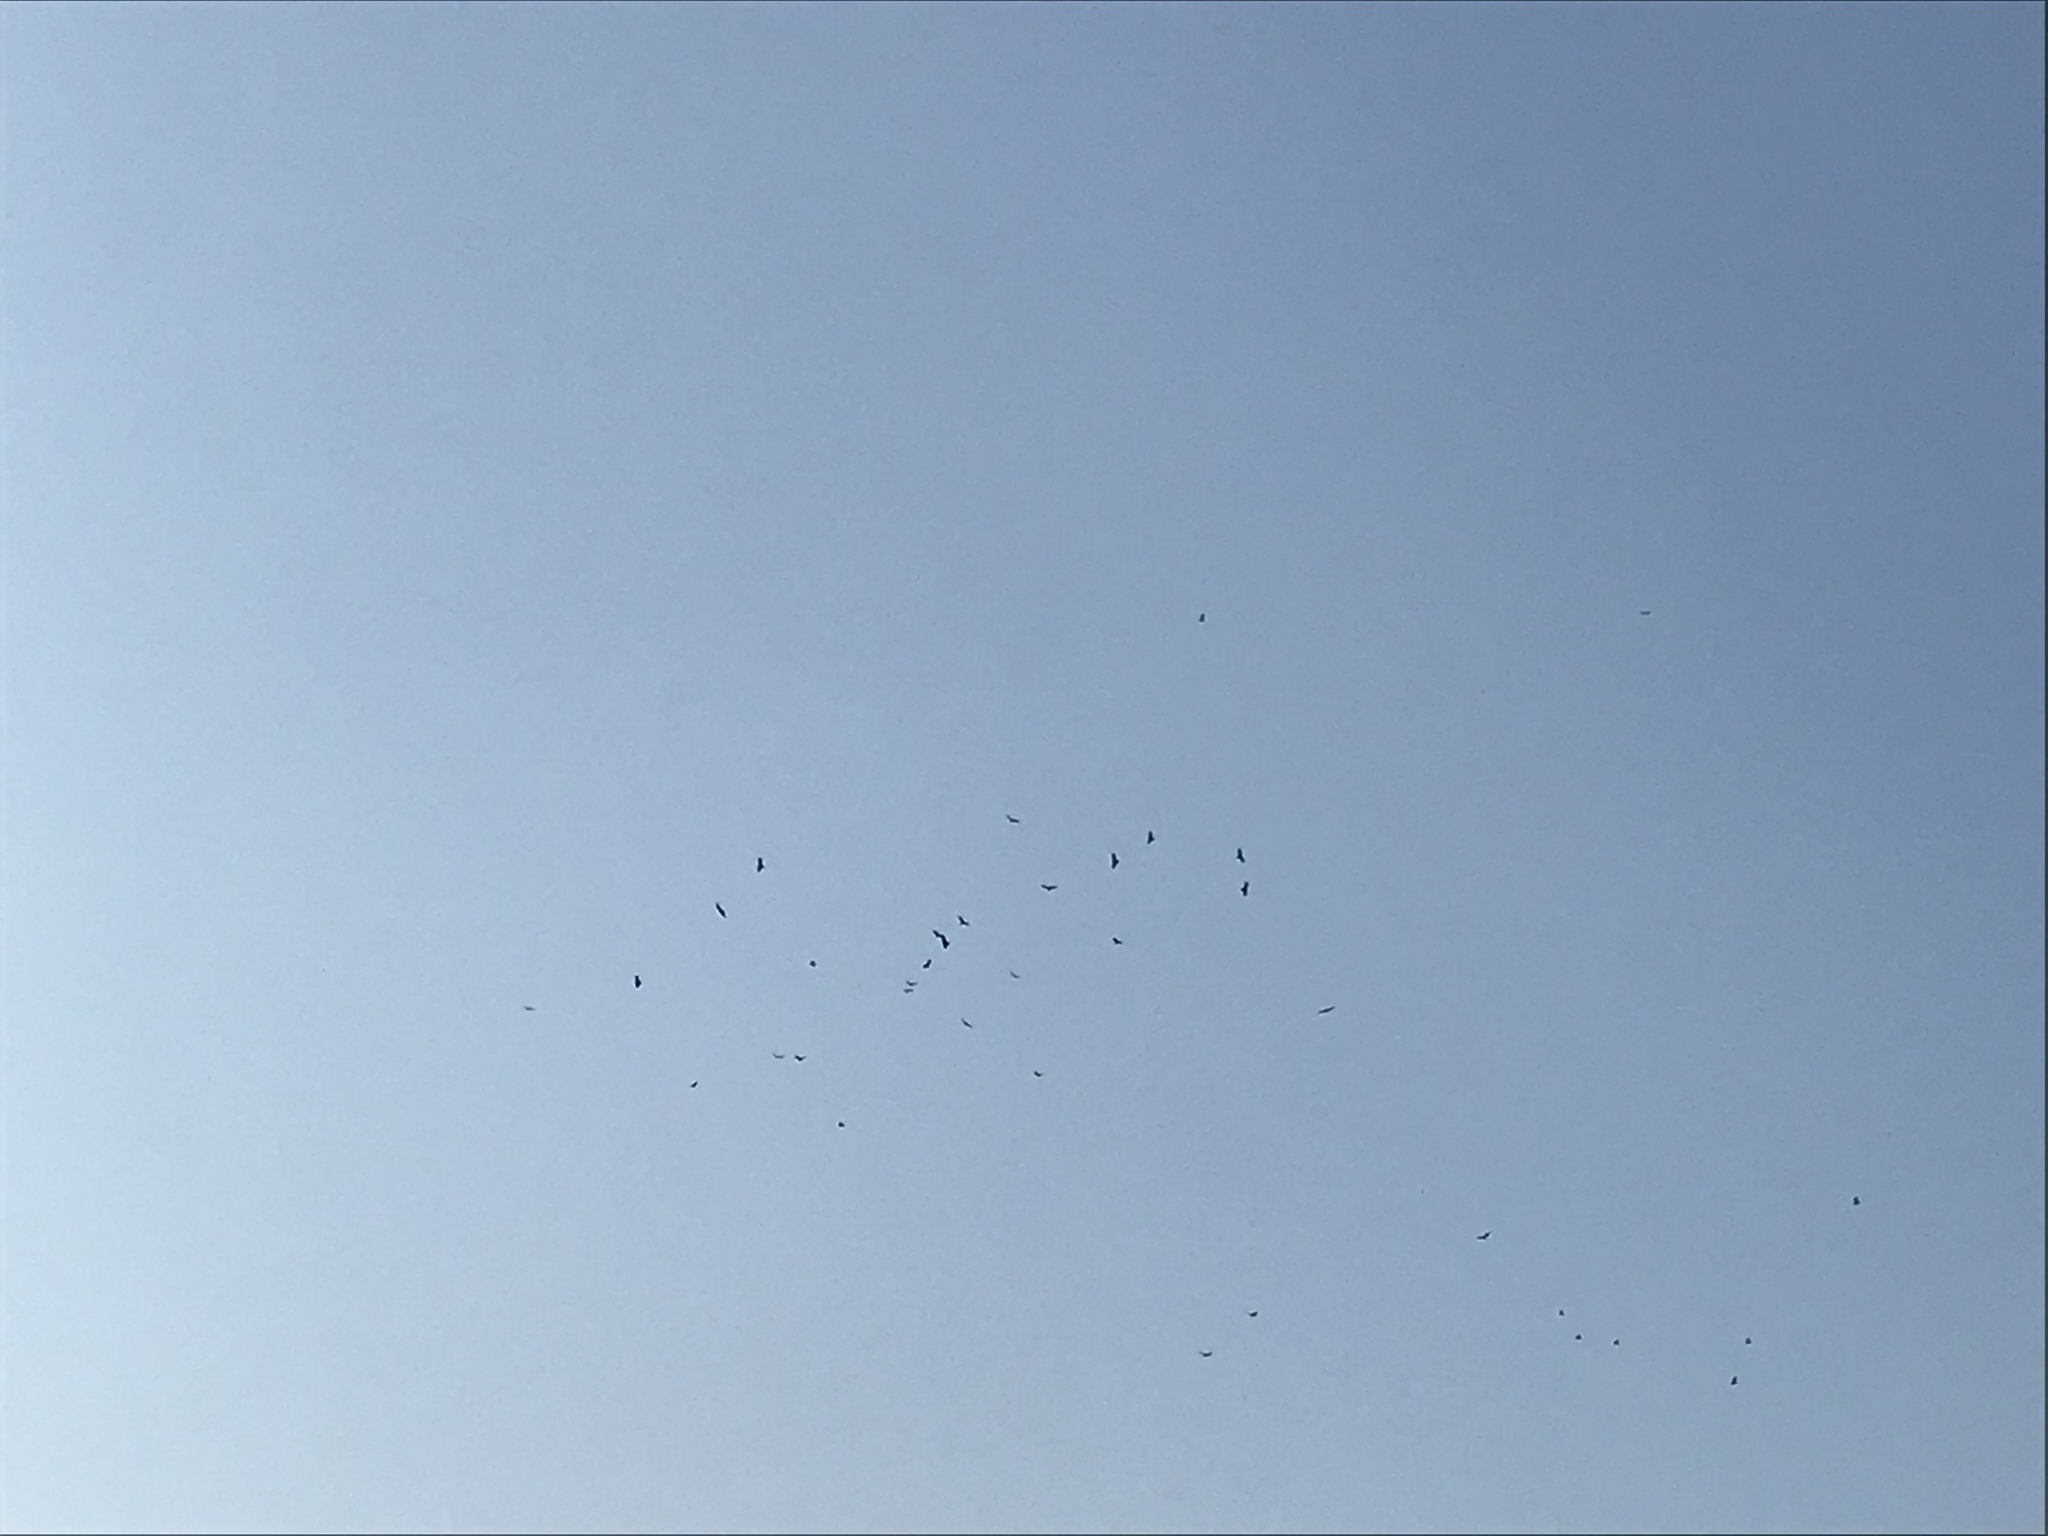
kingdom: Animalia
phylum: Chordata
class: Aves
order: Accipitriformes
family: Cathartidae
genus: Cathartes
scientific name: Cathartes aura
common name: Turkey vulture
